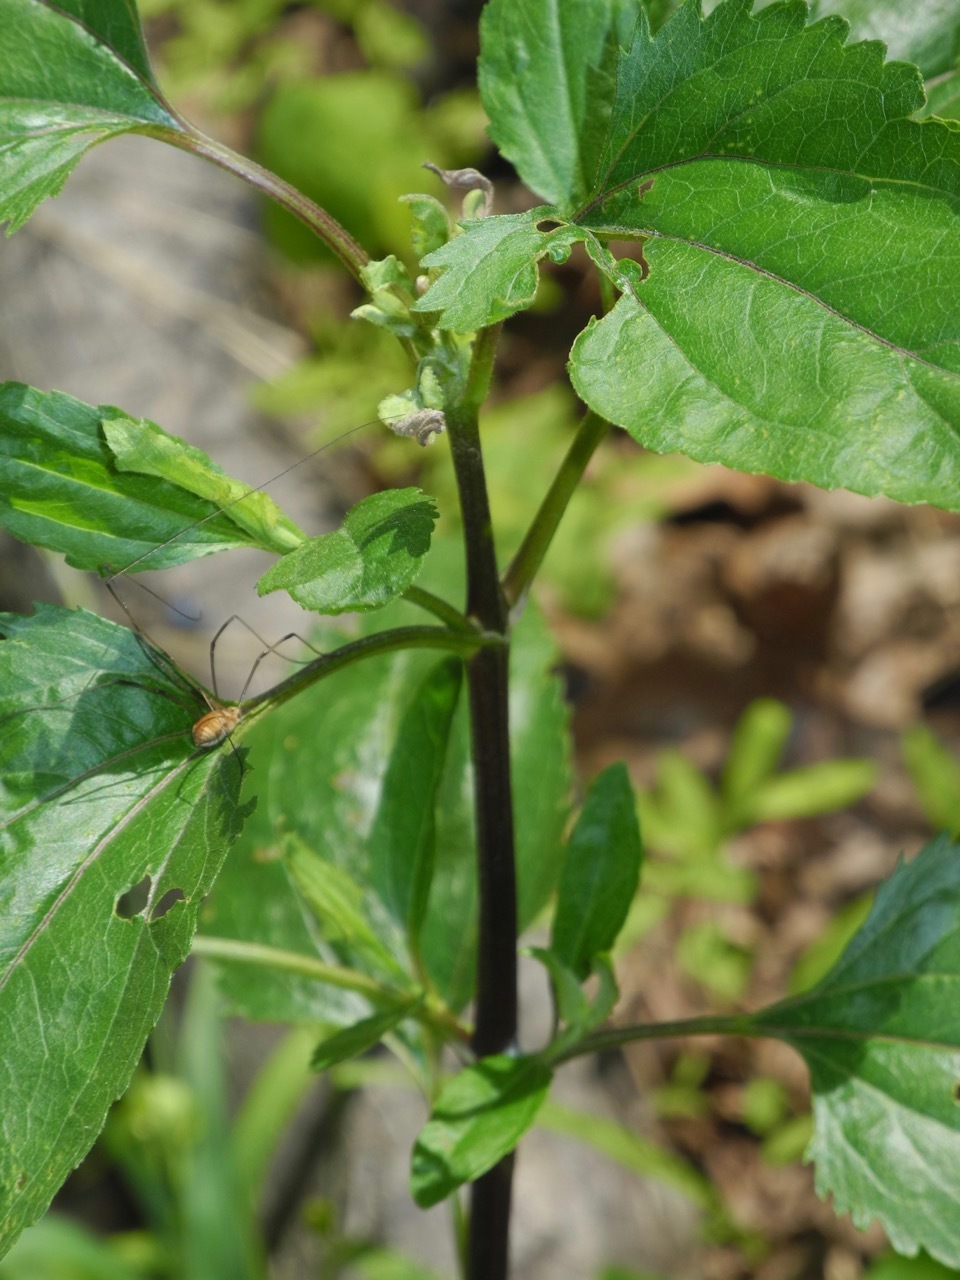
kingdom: Plantae
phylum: Tracheophyta
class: Magnoliopsida
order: Asterales
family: Asteraceae
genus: Eupatorium
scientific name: Eupatorium serotinum
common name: Late boneset
